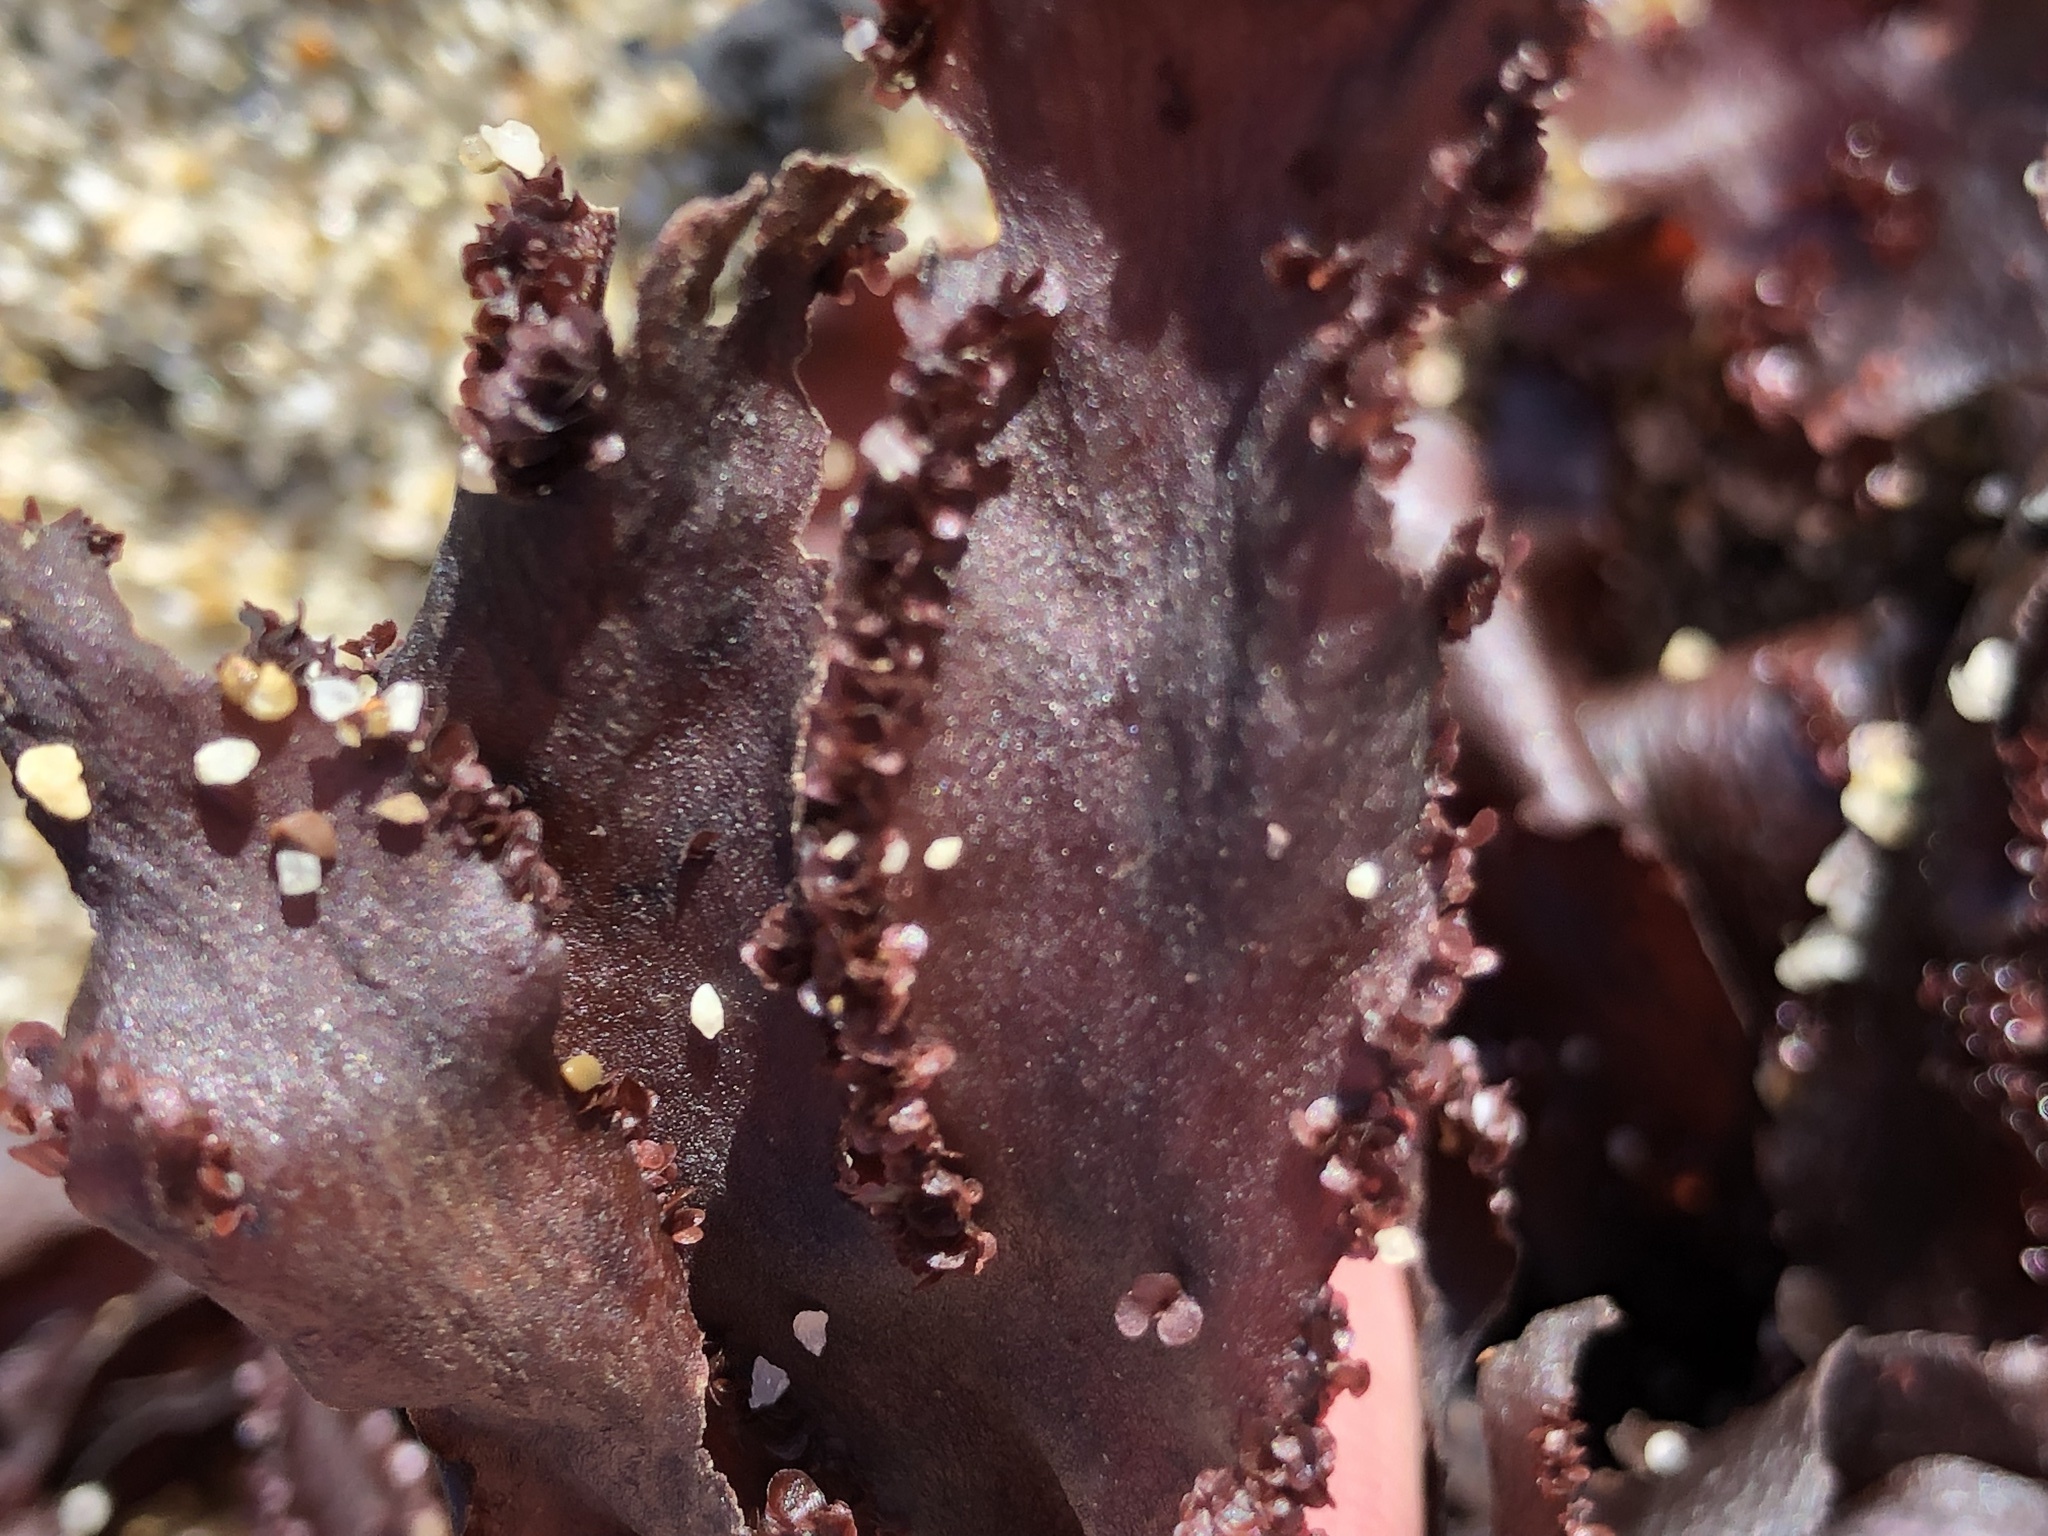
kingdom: Plantae
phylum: Rhodophyta
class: Florideophyceae
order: Ceramiales
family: Delesseriaceae
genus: Cryptopleura
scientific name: Cryptopleura ruprechtiana
